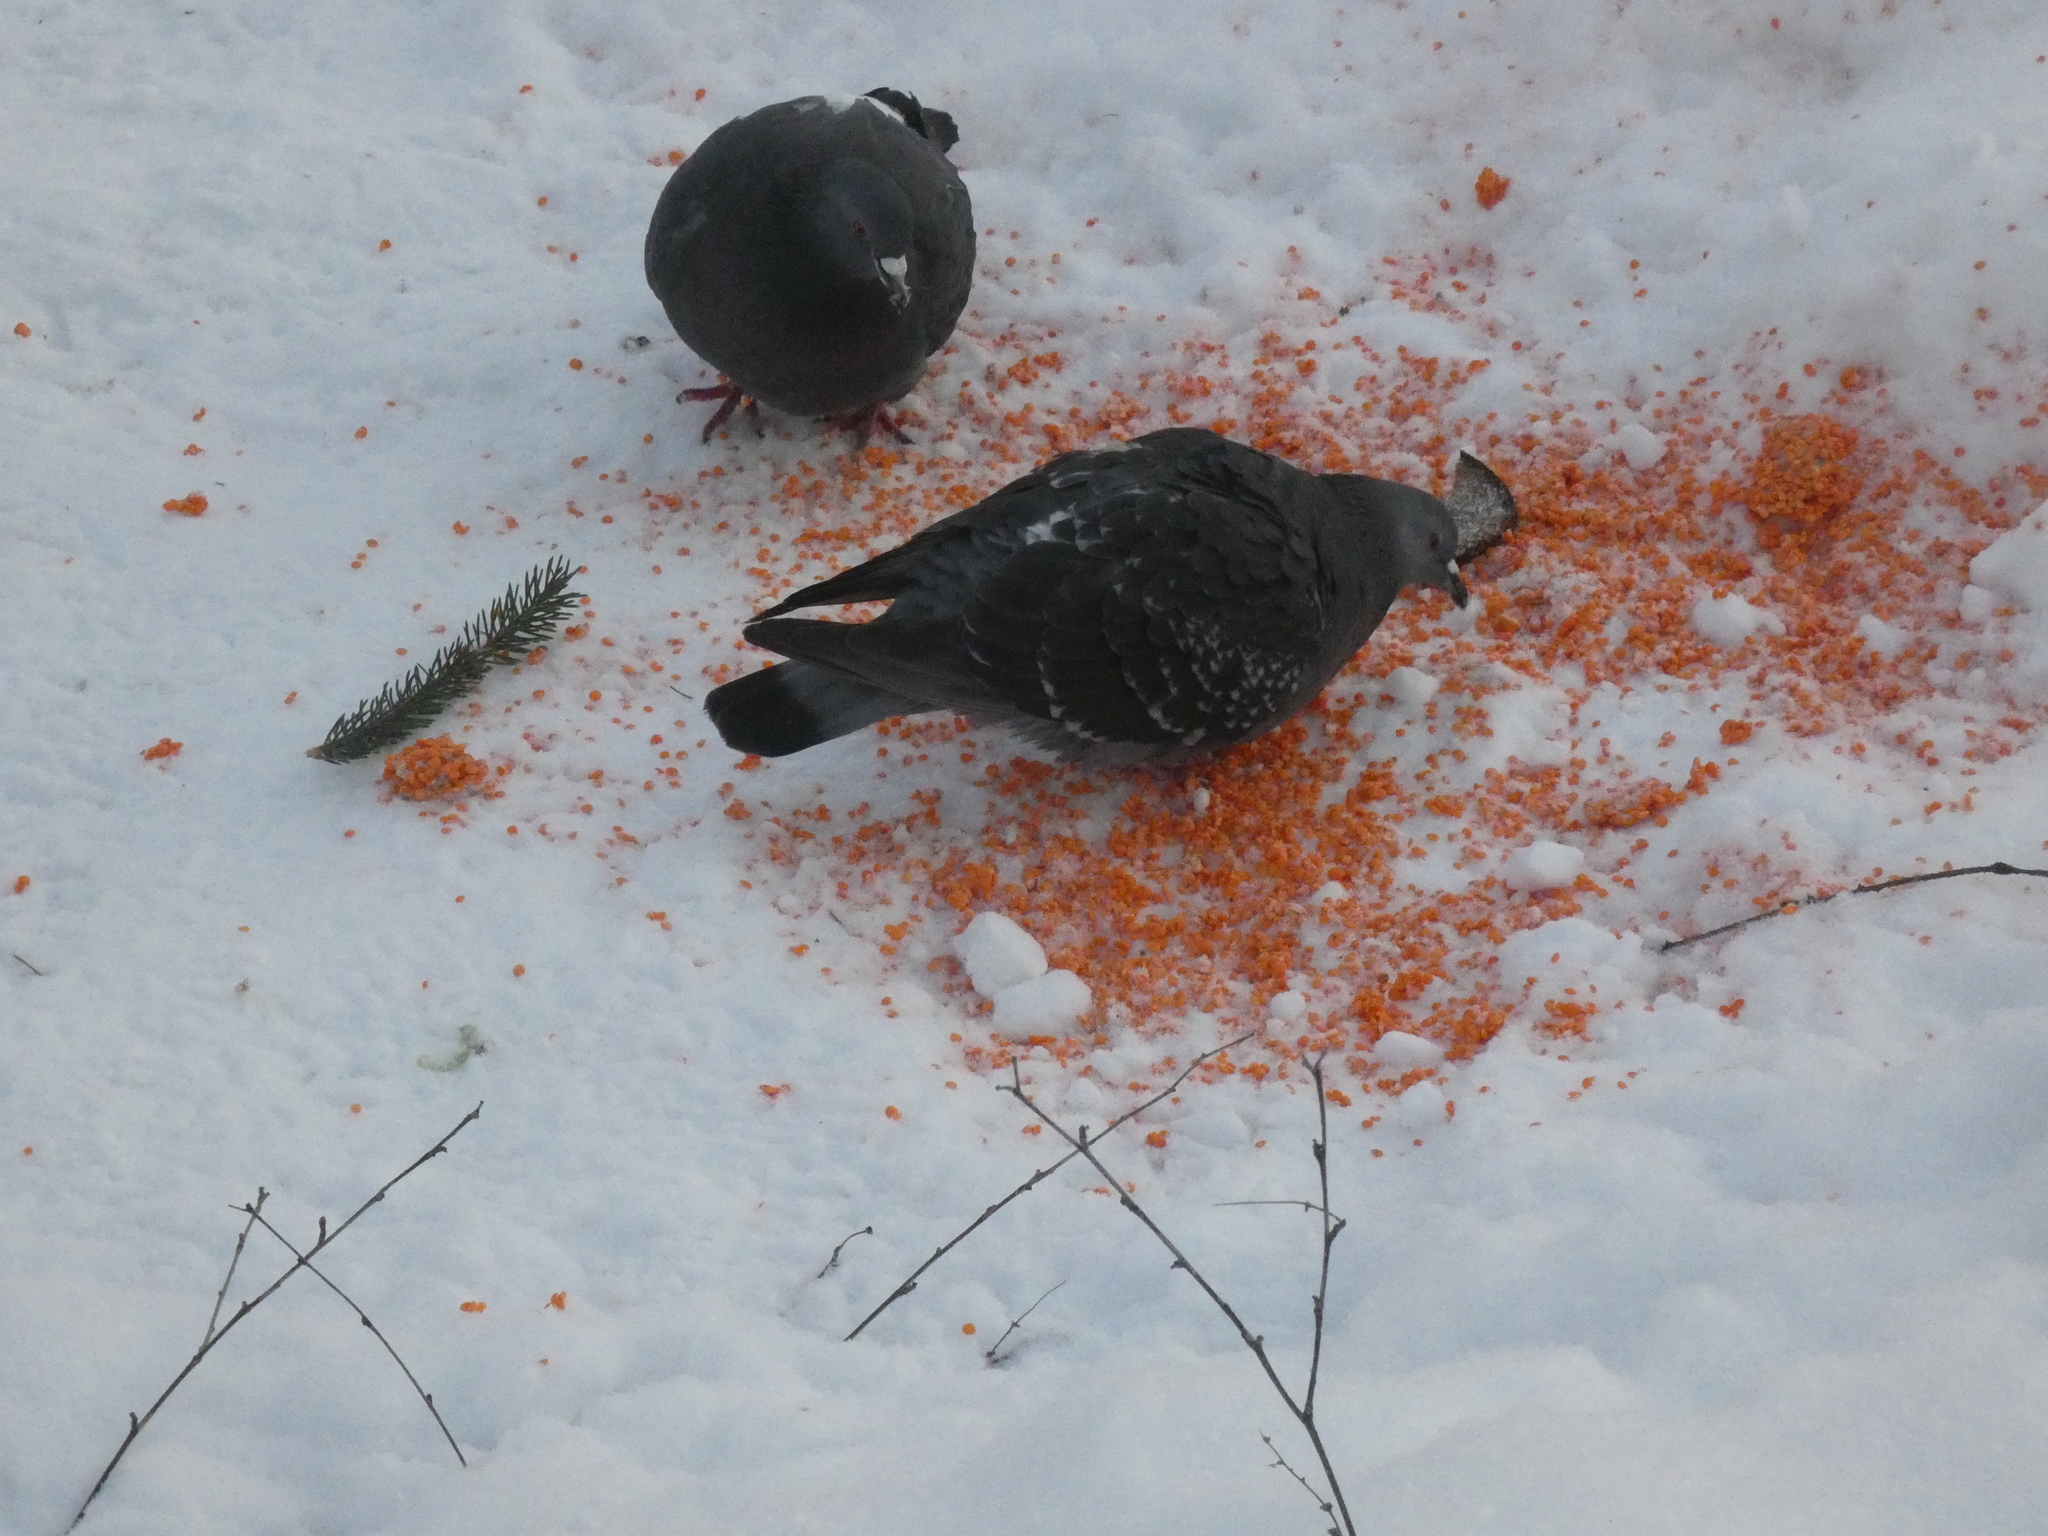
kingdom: Animalia
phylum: Chordata
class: Aves
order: Columbiformes
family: Columbidae
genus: Columba
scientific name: Columba livia
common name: Rock pigeon
